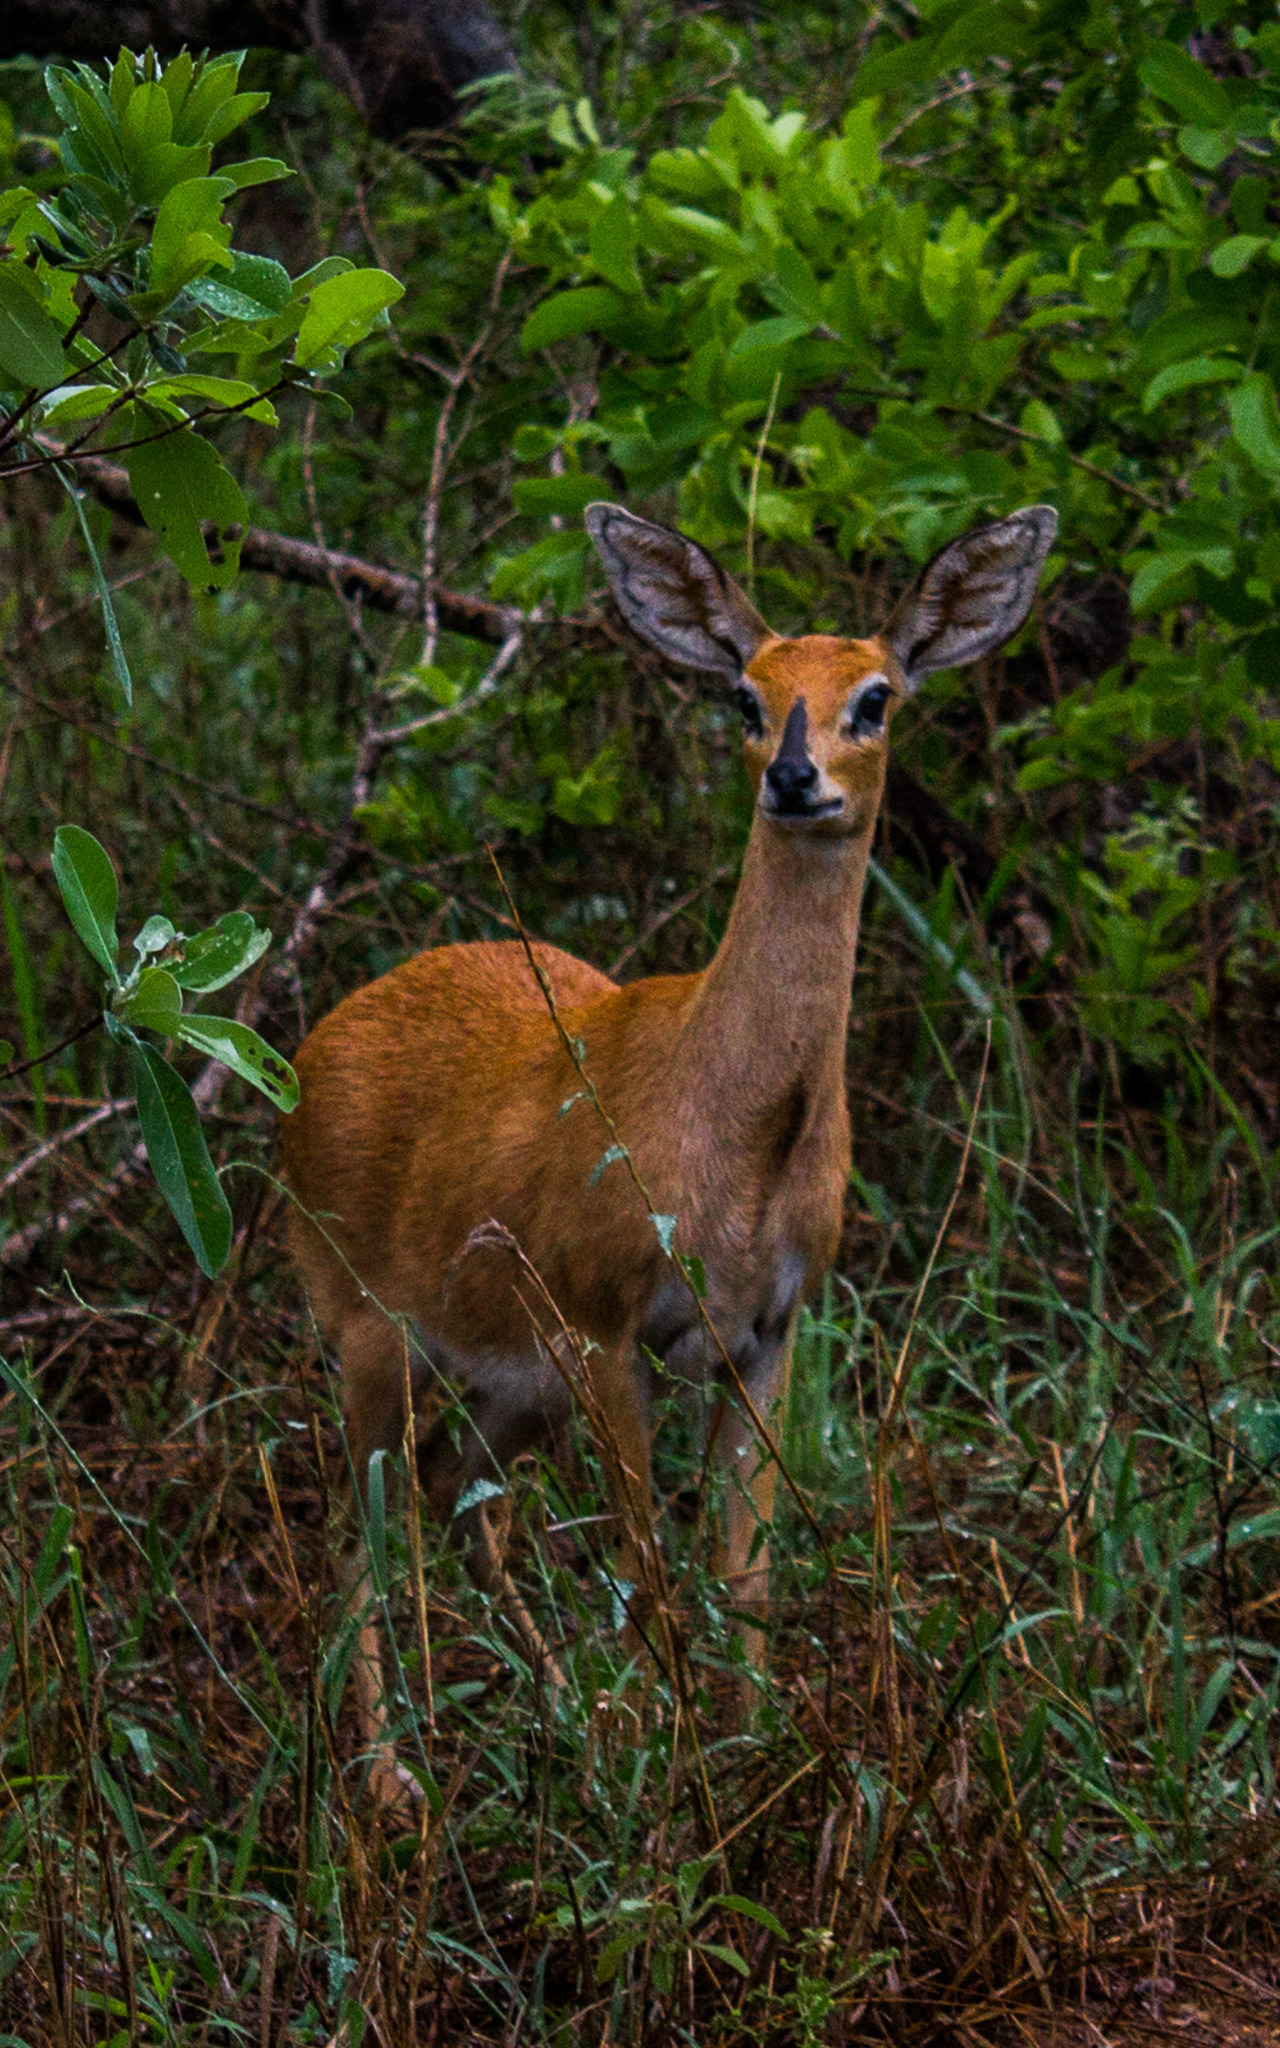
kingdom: Animalia
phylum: Chordata
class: Mammalia
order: Artiodactyla
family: Bovidae
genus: Raphicerus
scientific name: Raphicerus campestris
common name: Steenbok
